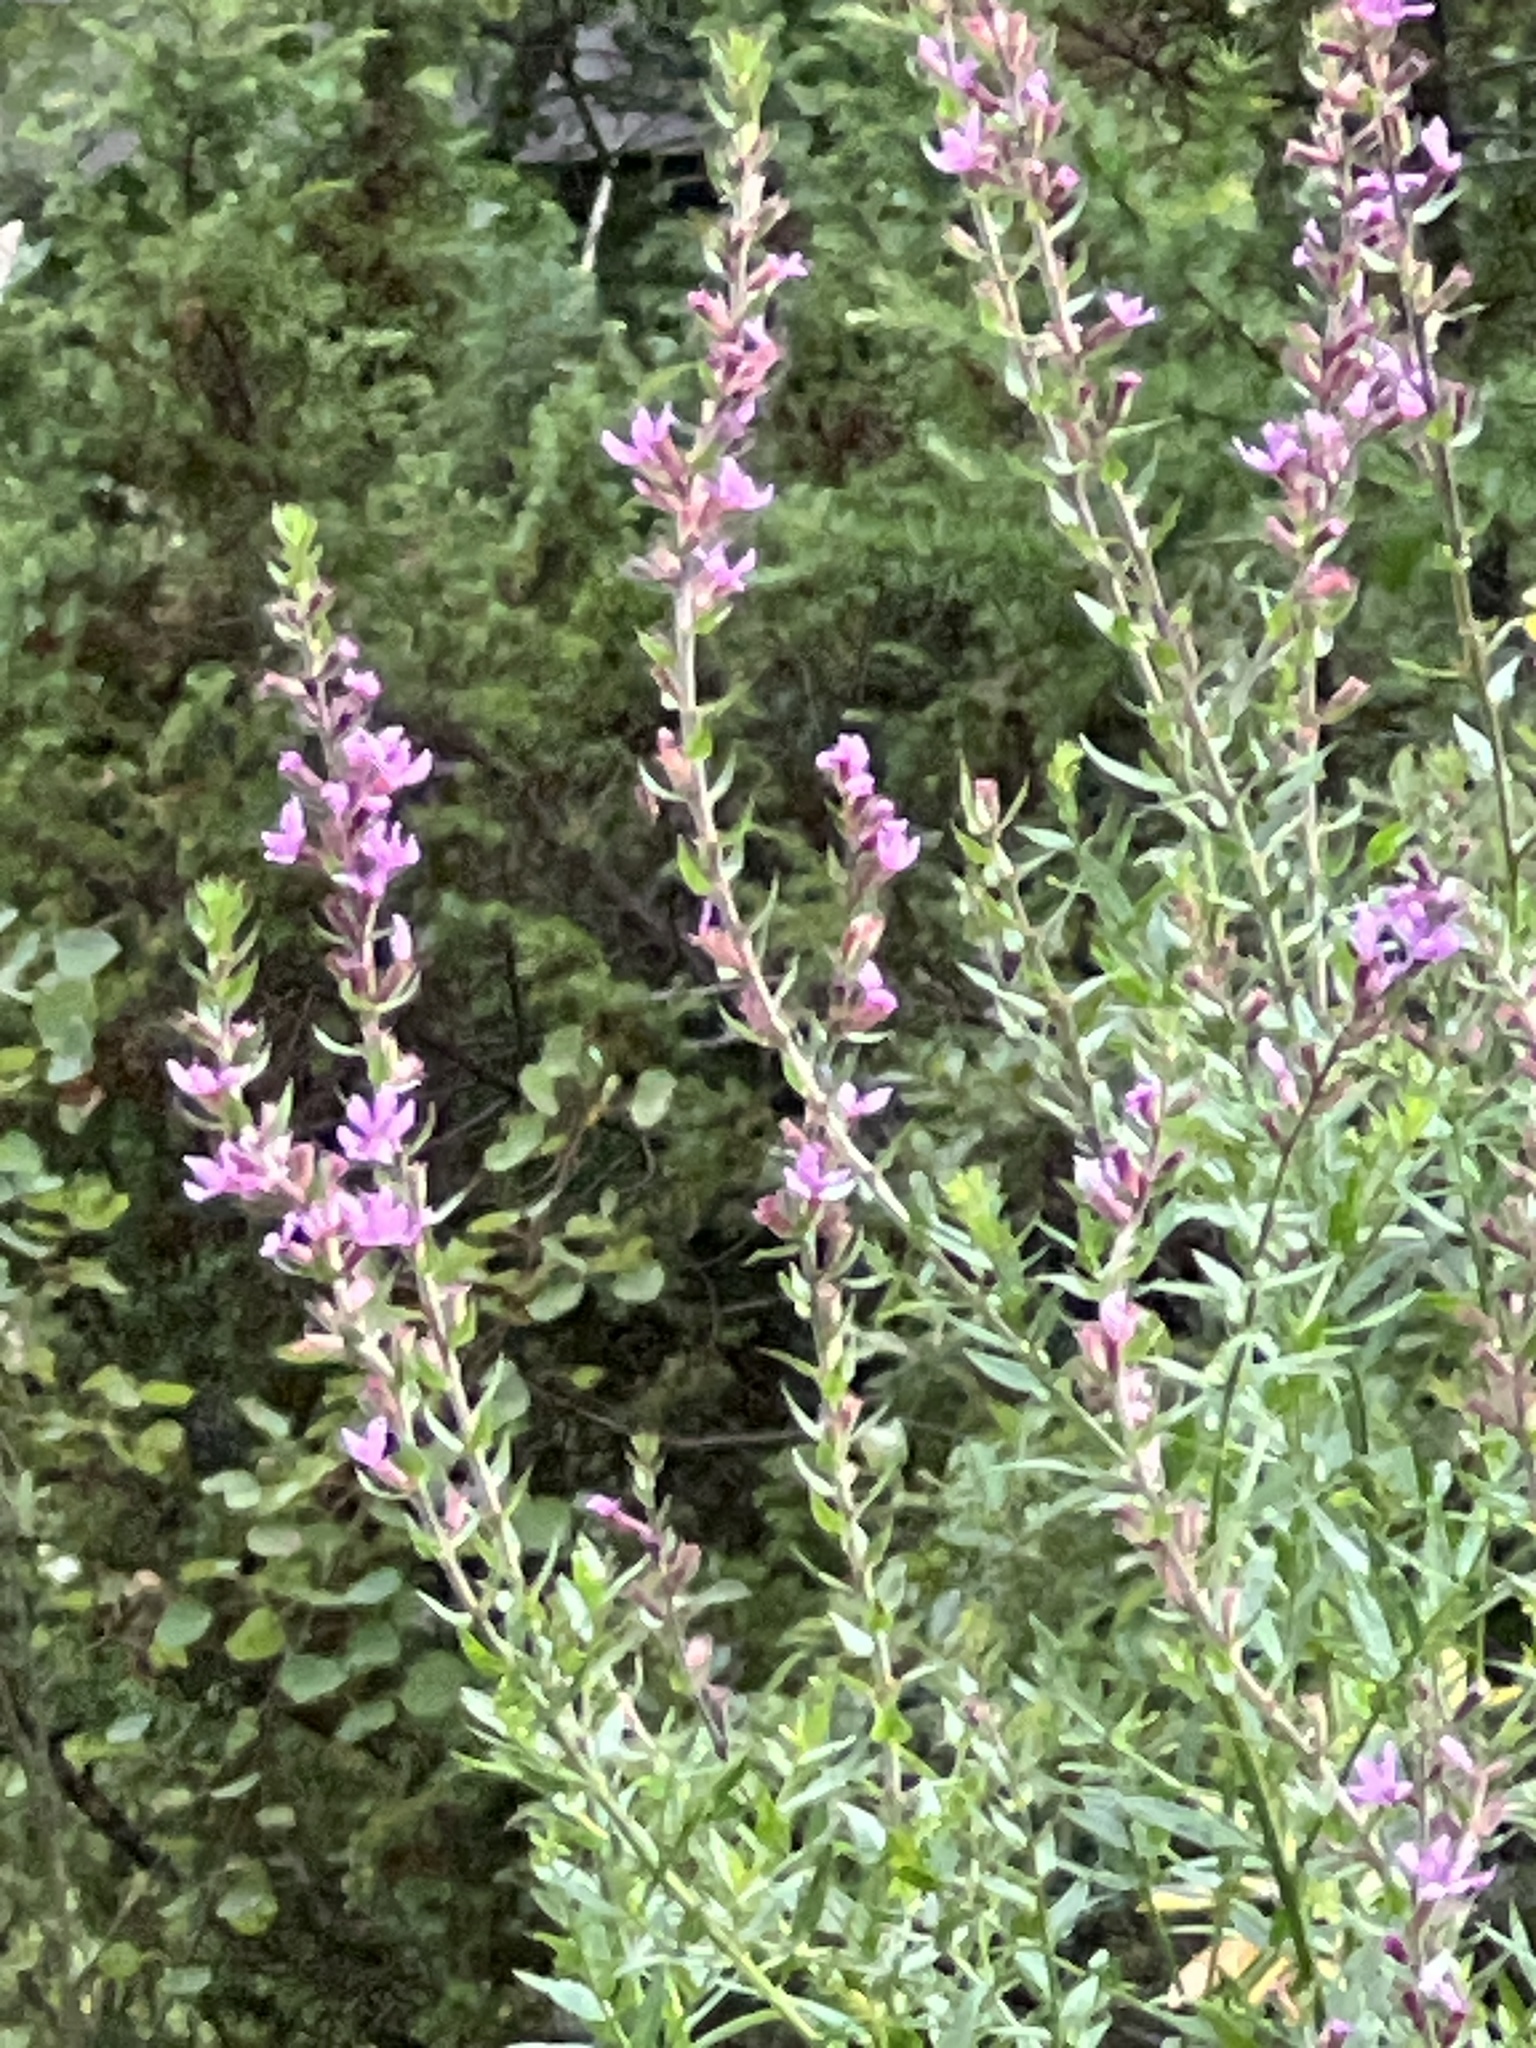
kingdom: Plantae
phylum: Tracheophyta
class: Magnoliopsida
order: Myrtales
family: Lythraceae
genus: Lythrum
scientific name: Lythrum salicaria
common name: Purple loosestrife
